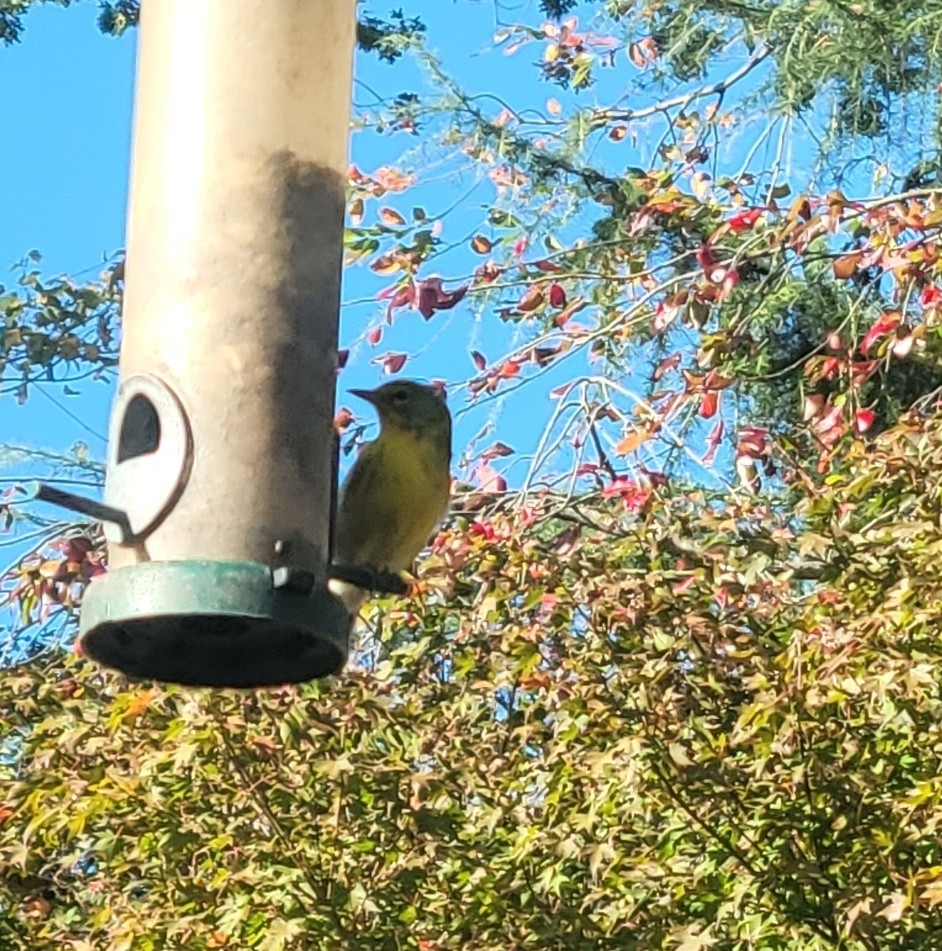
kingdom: Animalia
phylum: Chordata
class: Aves
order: Passeriformes
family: Parulidae
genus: Setophaga
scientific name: Setophaga pinus
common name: Pine warbler
